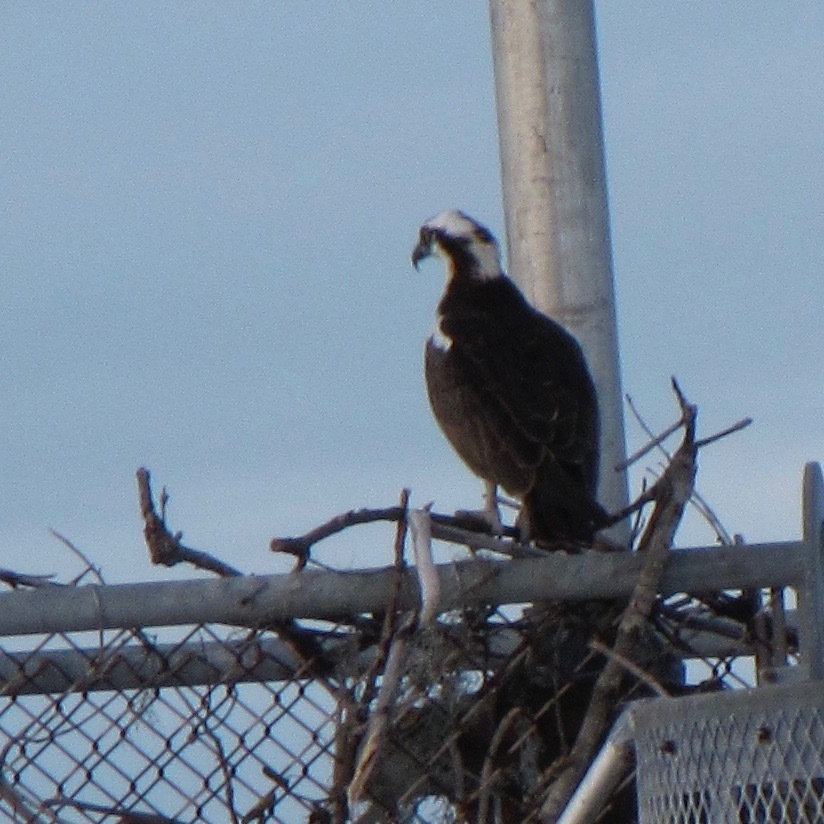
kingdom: Animalia
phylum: Chordata
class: Aves
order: Accipitriformes
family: Pandionidae
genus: Pandion
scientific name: Pandion haliaetus
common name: Osprey
